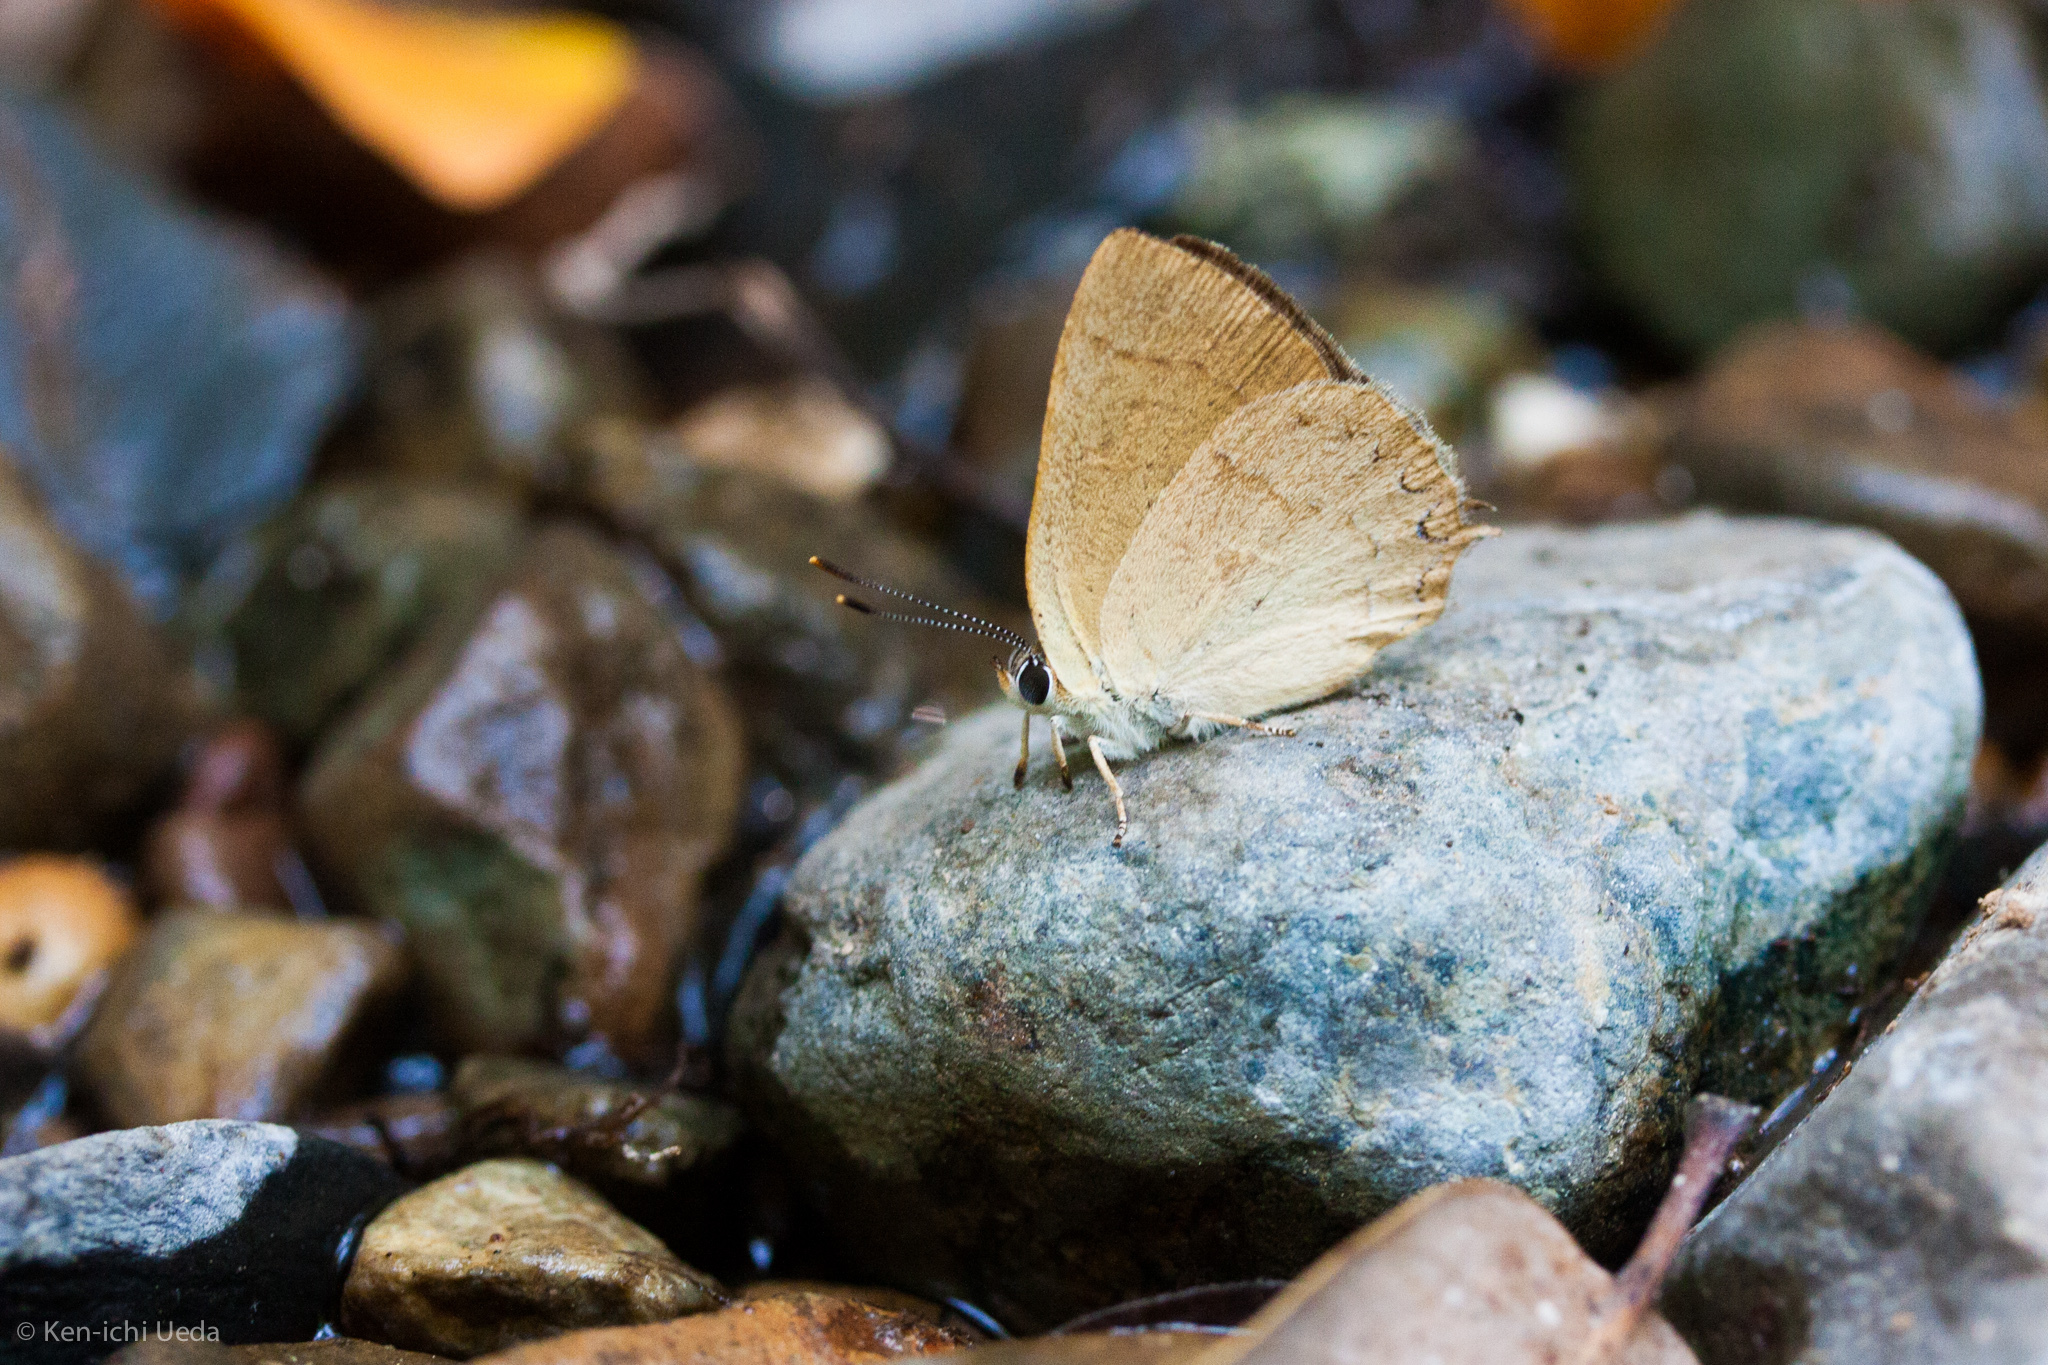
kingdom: Animalia
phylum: Arthropoda
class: Insecta
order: Lepidoptera
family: Lycaenidae
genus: Habrodais
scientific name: Habrodais grunus
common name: Golden hairstreak
